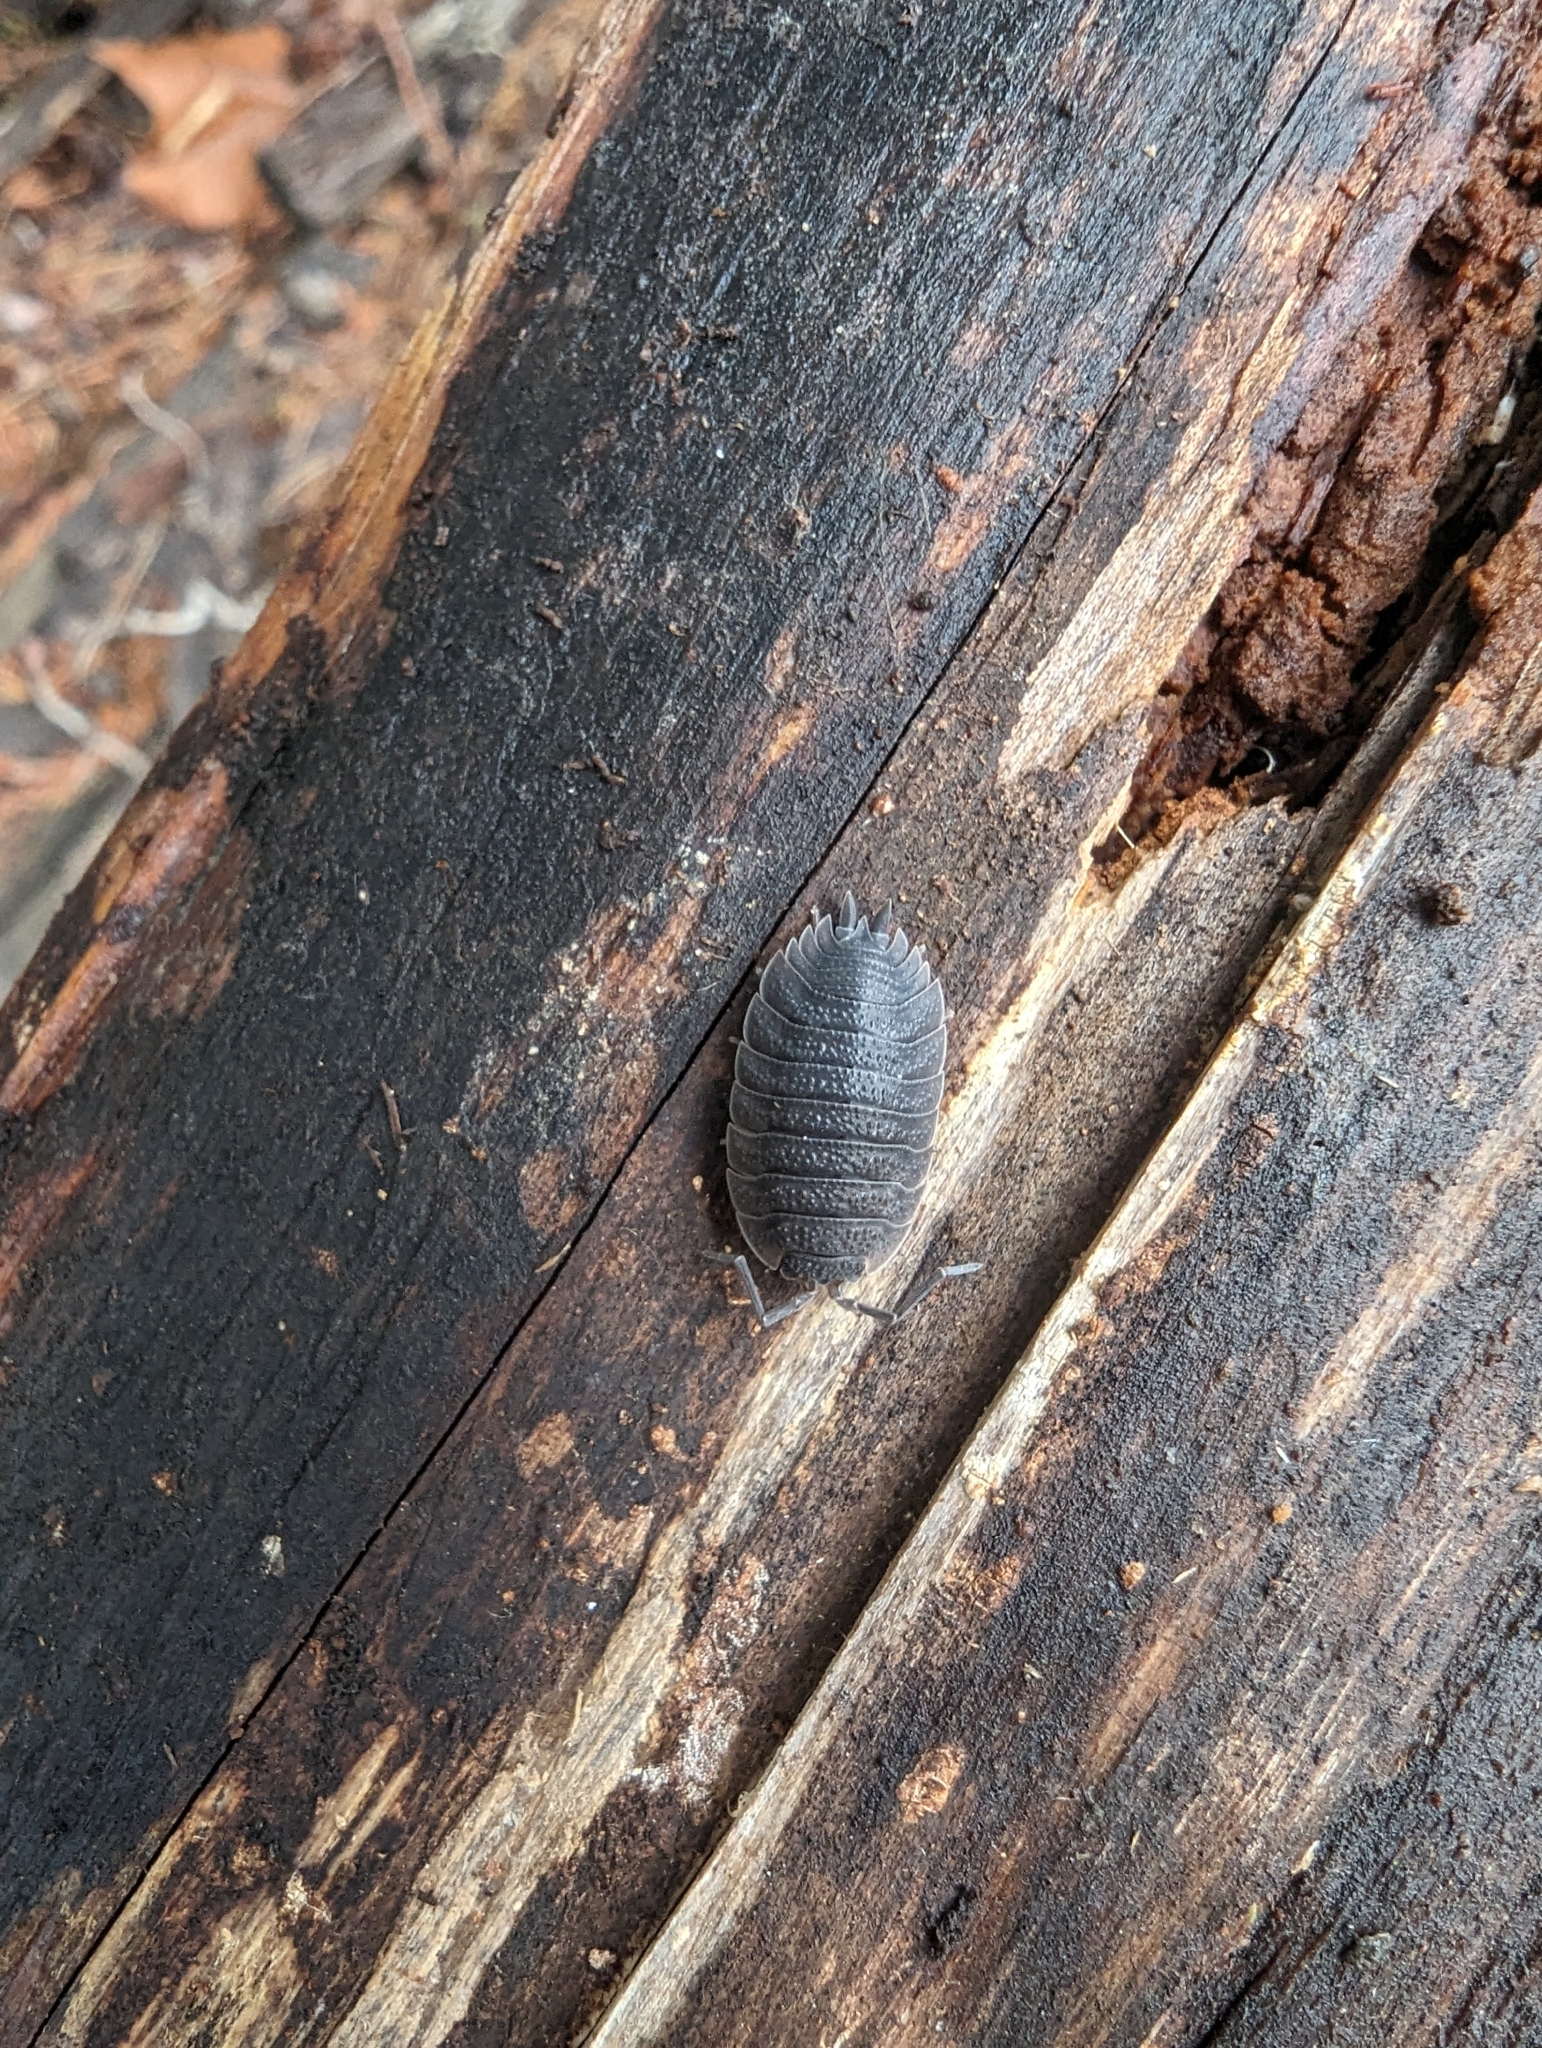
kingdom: Animalia
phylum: Arthropoda
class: Malacostraca
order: Isopoda
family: Porcellionidae
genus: Porcellio
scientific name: Porcellio scaber
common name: Common rough woodlouse
